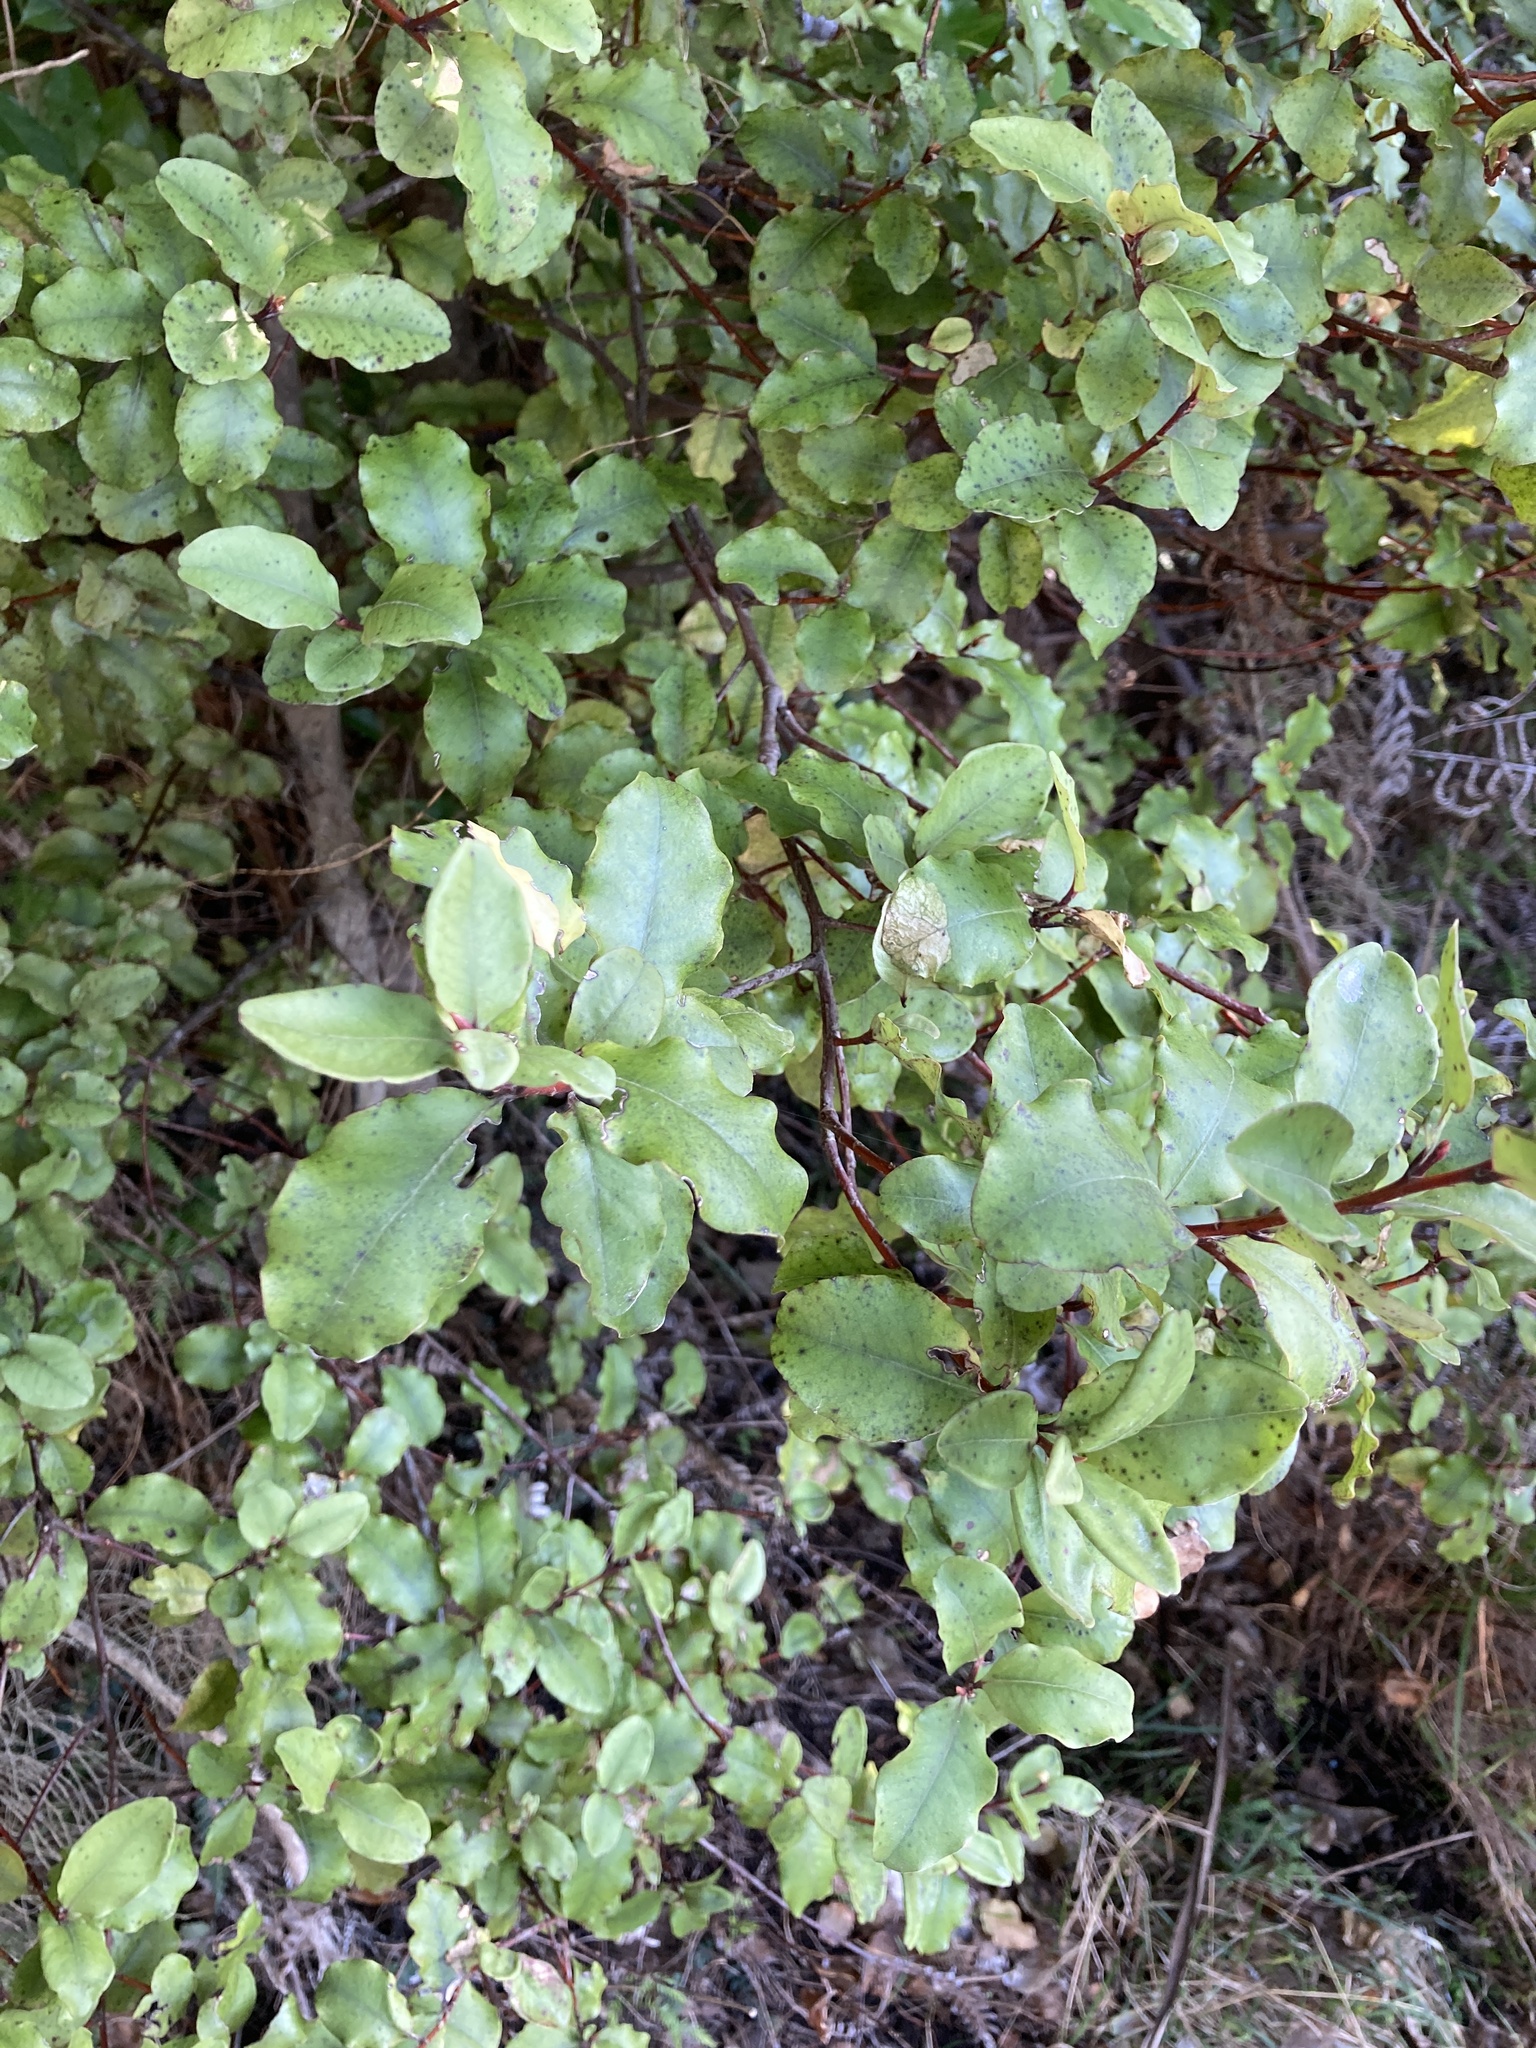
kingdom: Plantae
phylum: Tracheophyta
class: Magnoliopsida
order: Ericales
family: Primulaceae
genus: Myrsine
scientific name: Myrsine australis
